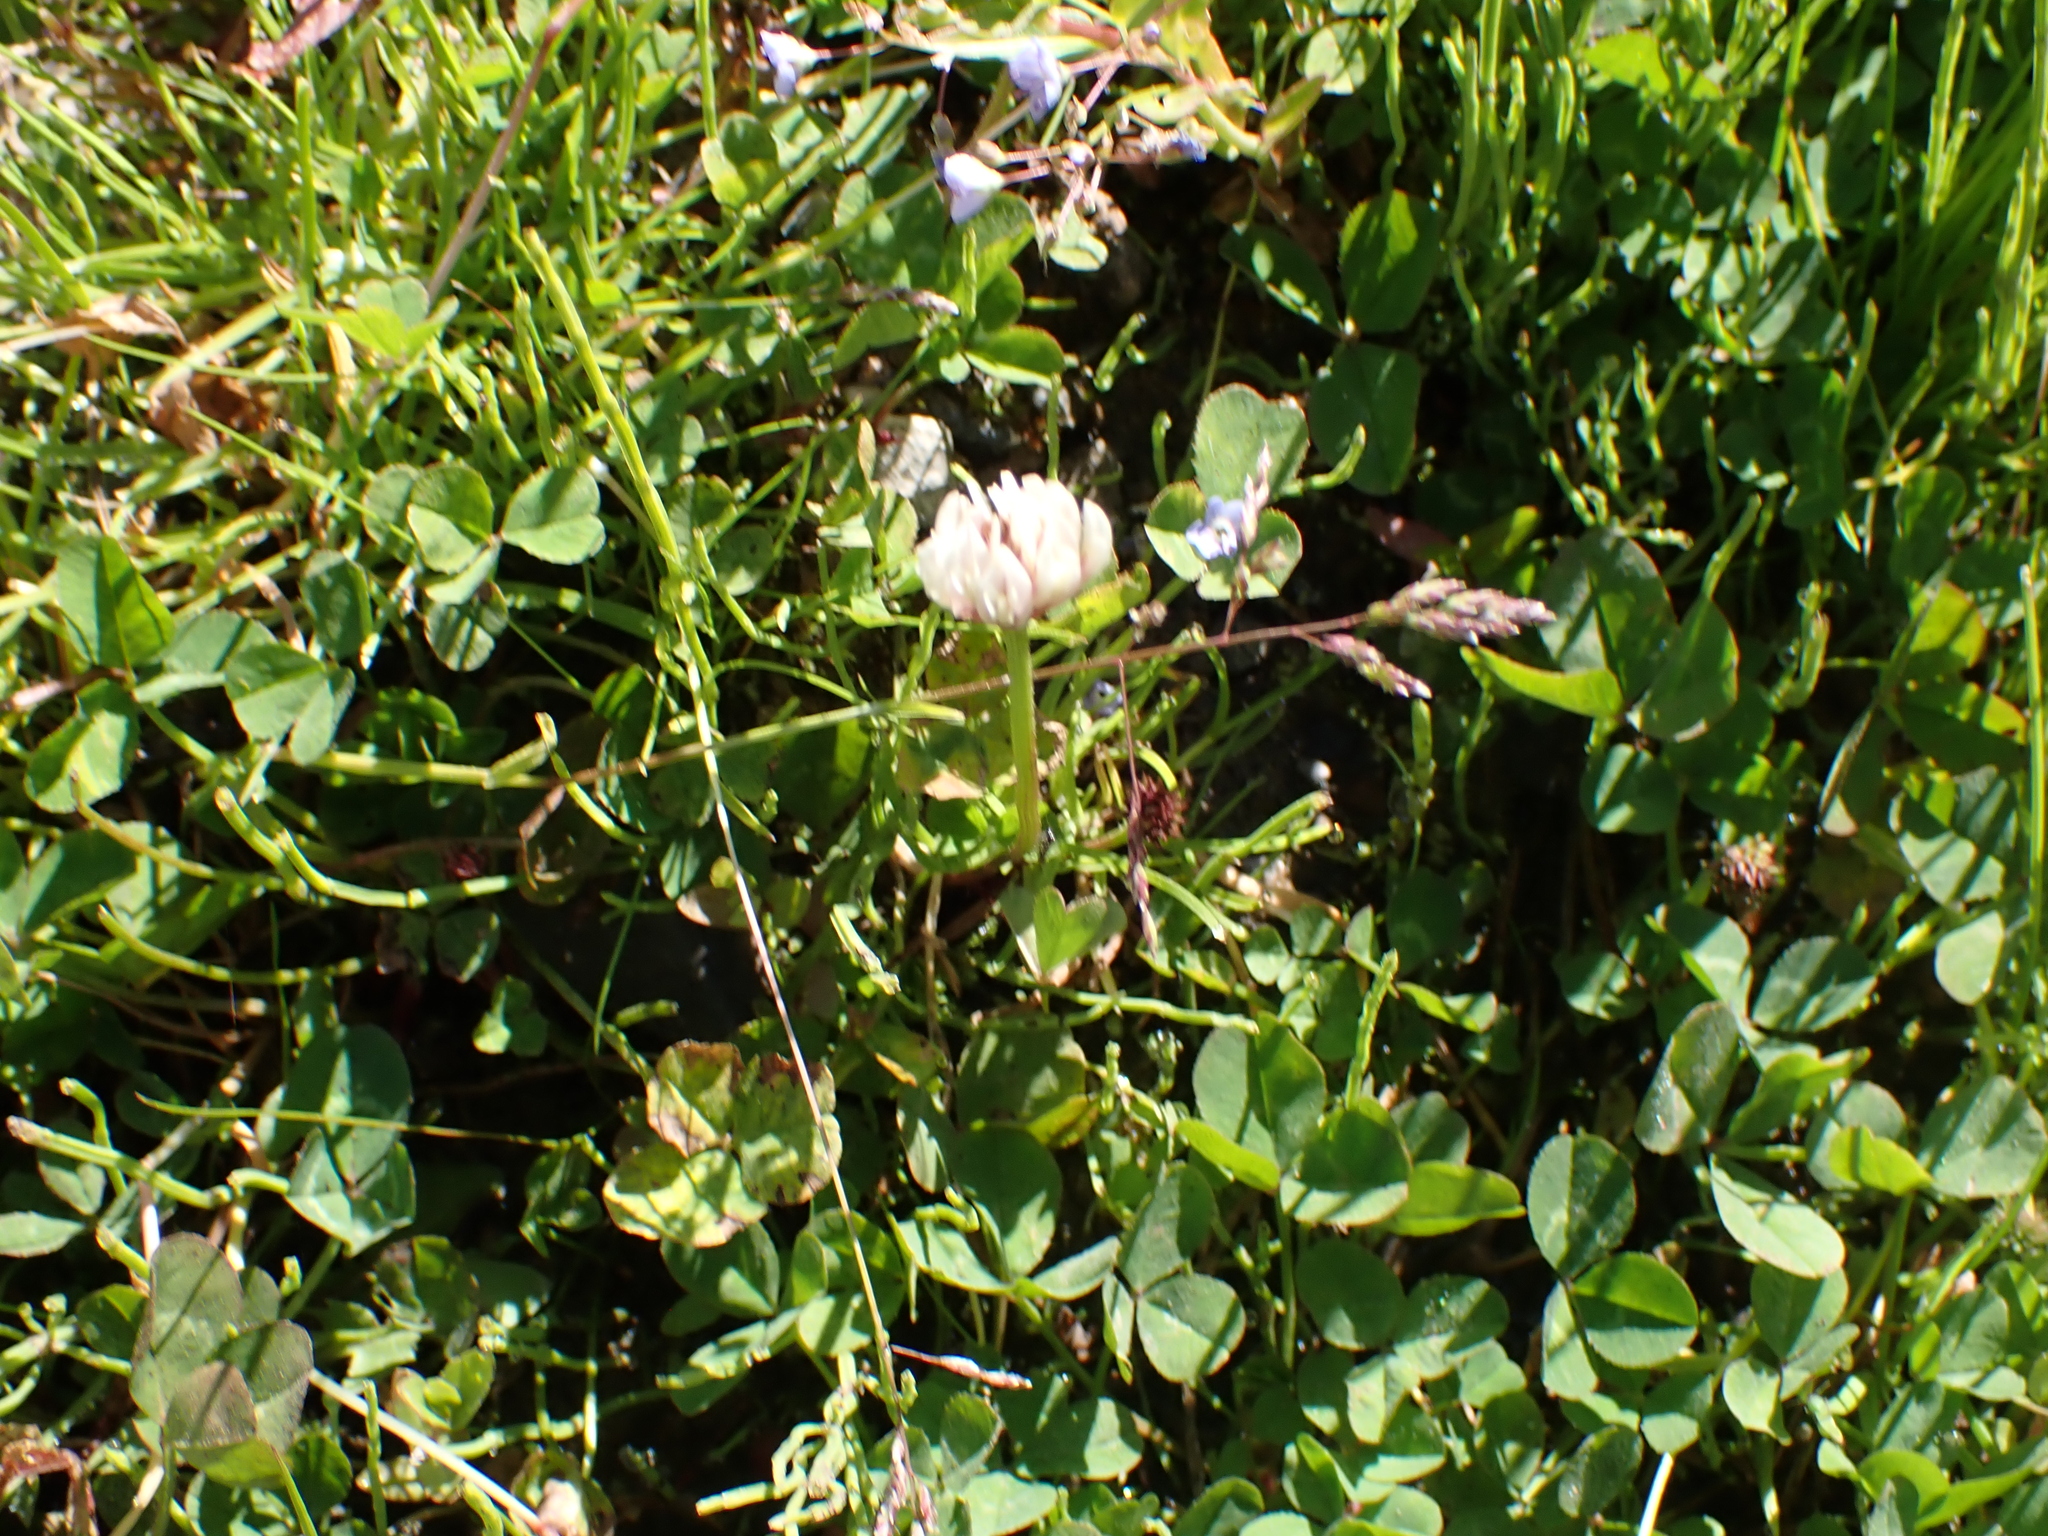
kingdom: Plantae
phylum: Tracheophyta
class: Magnoliopsida
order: Fabales
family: Fabaceae
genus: Trifolium
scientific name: Trifolium repens
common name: White clover
